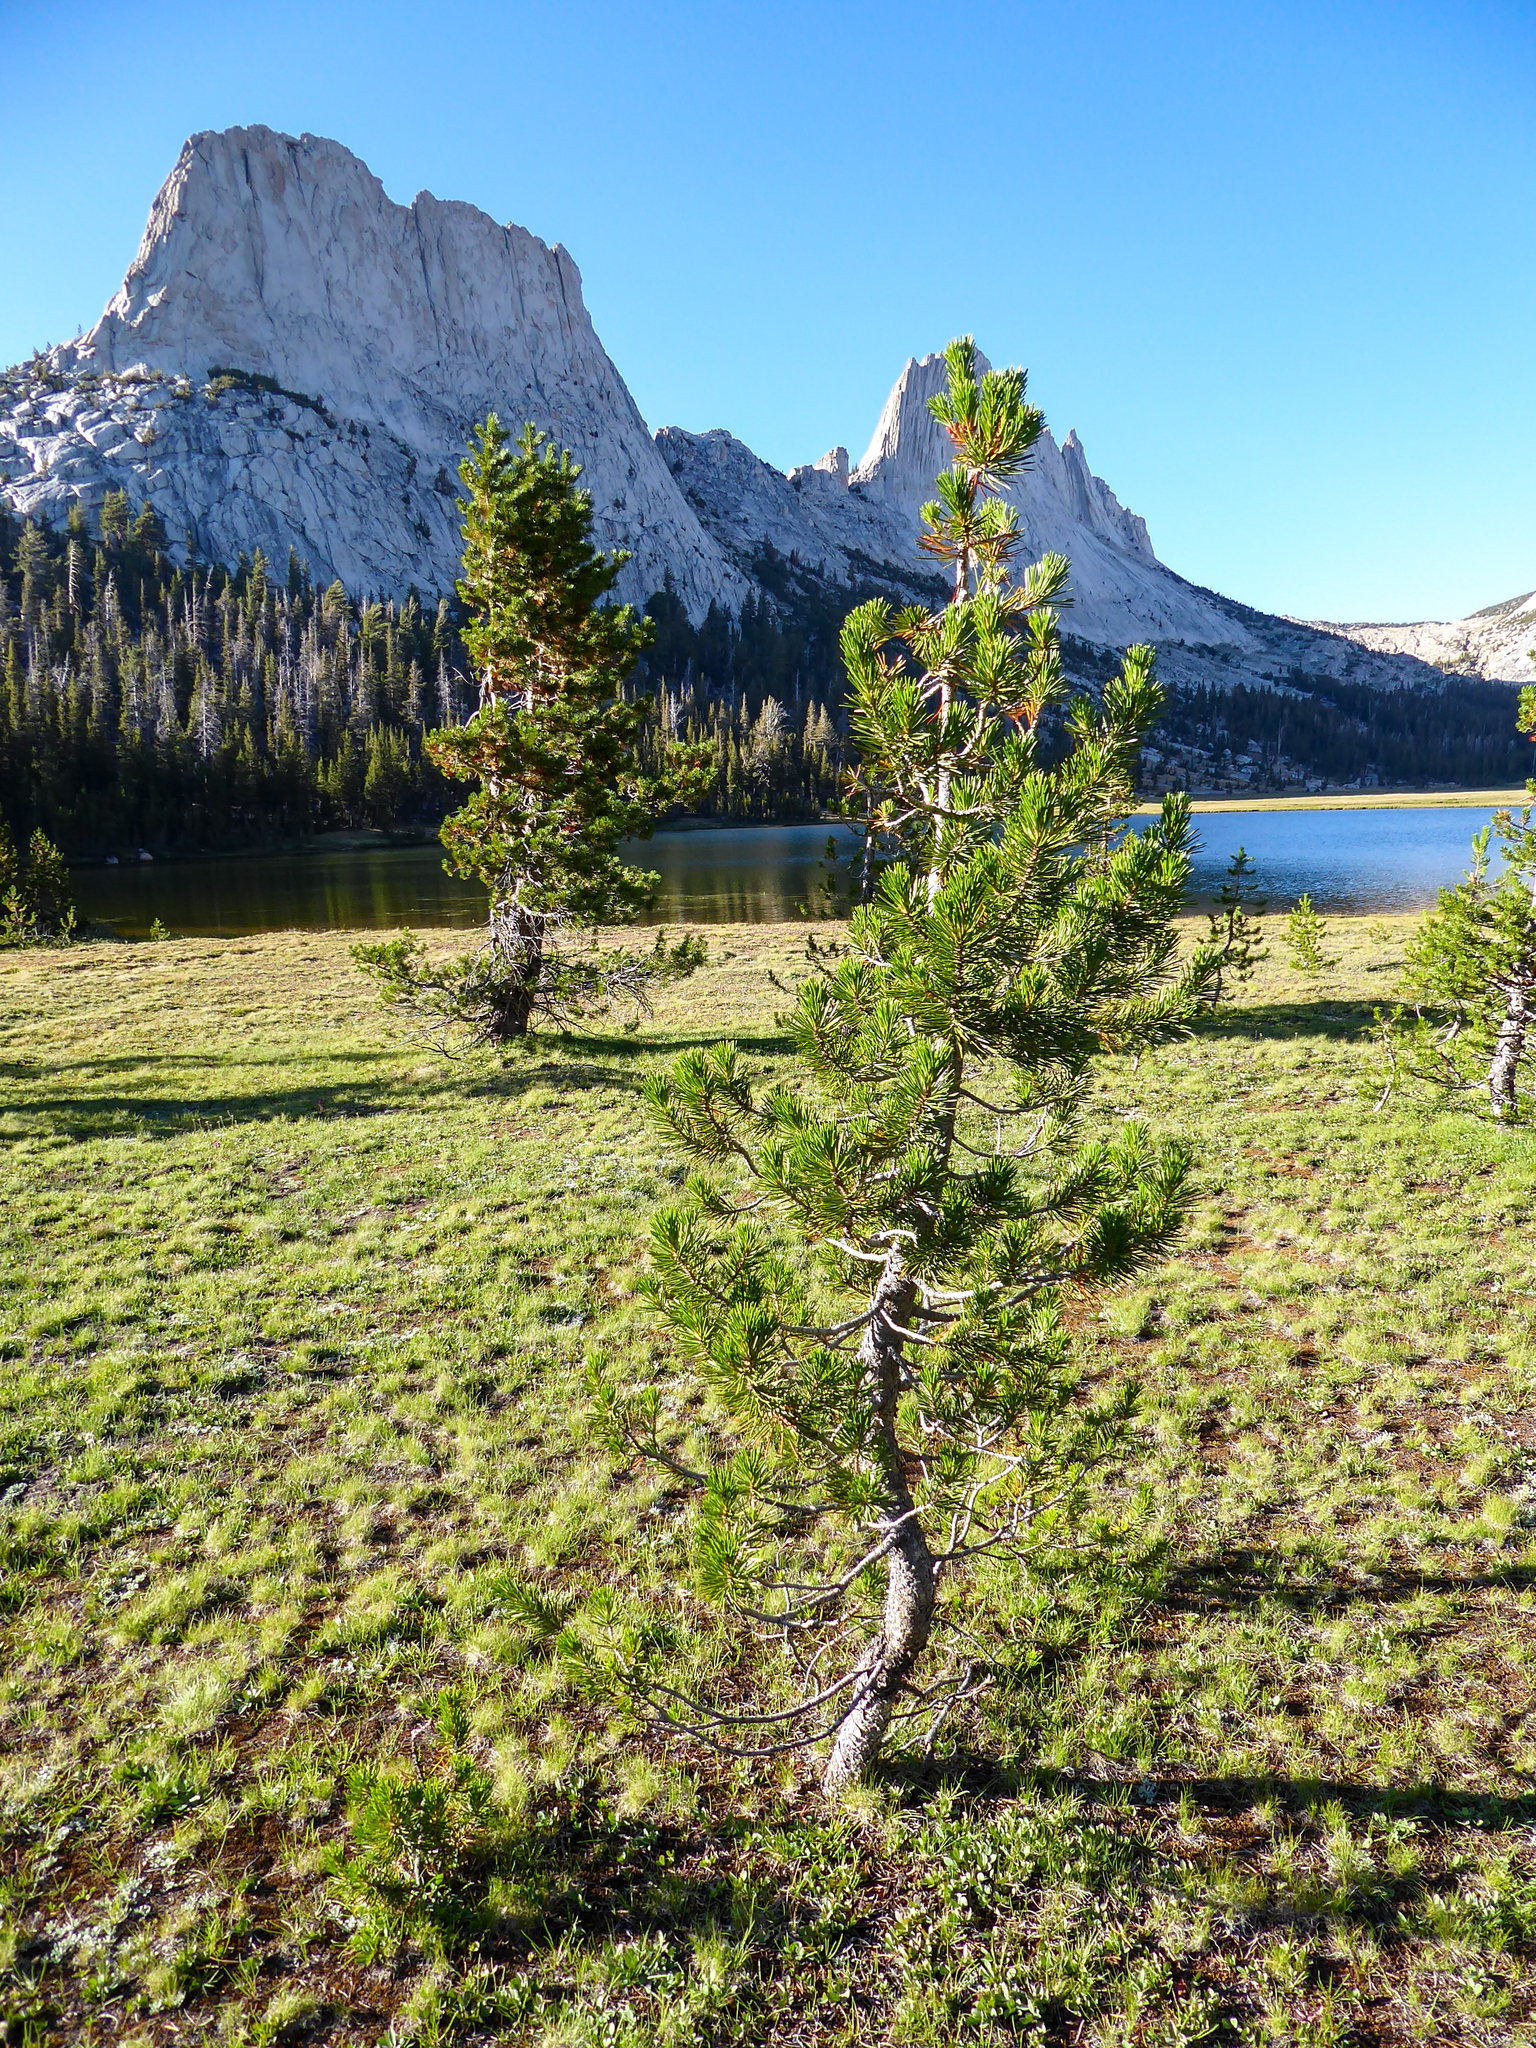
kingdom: Plantae
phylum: Tracheophyta
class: Pinopsida
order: Pinales
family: Pinaceae
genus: Pinus
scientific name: Pinus contorta
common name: Lodgepole pine
